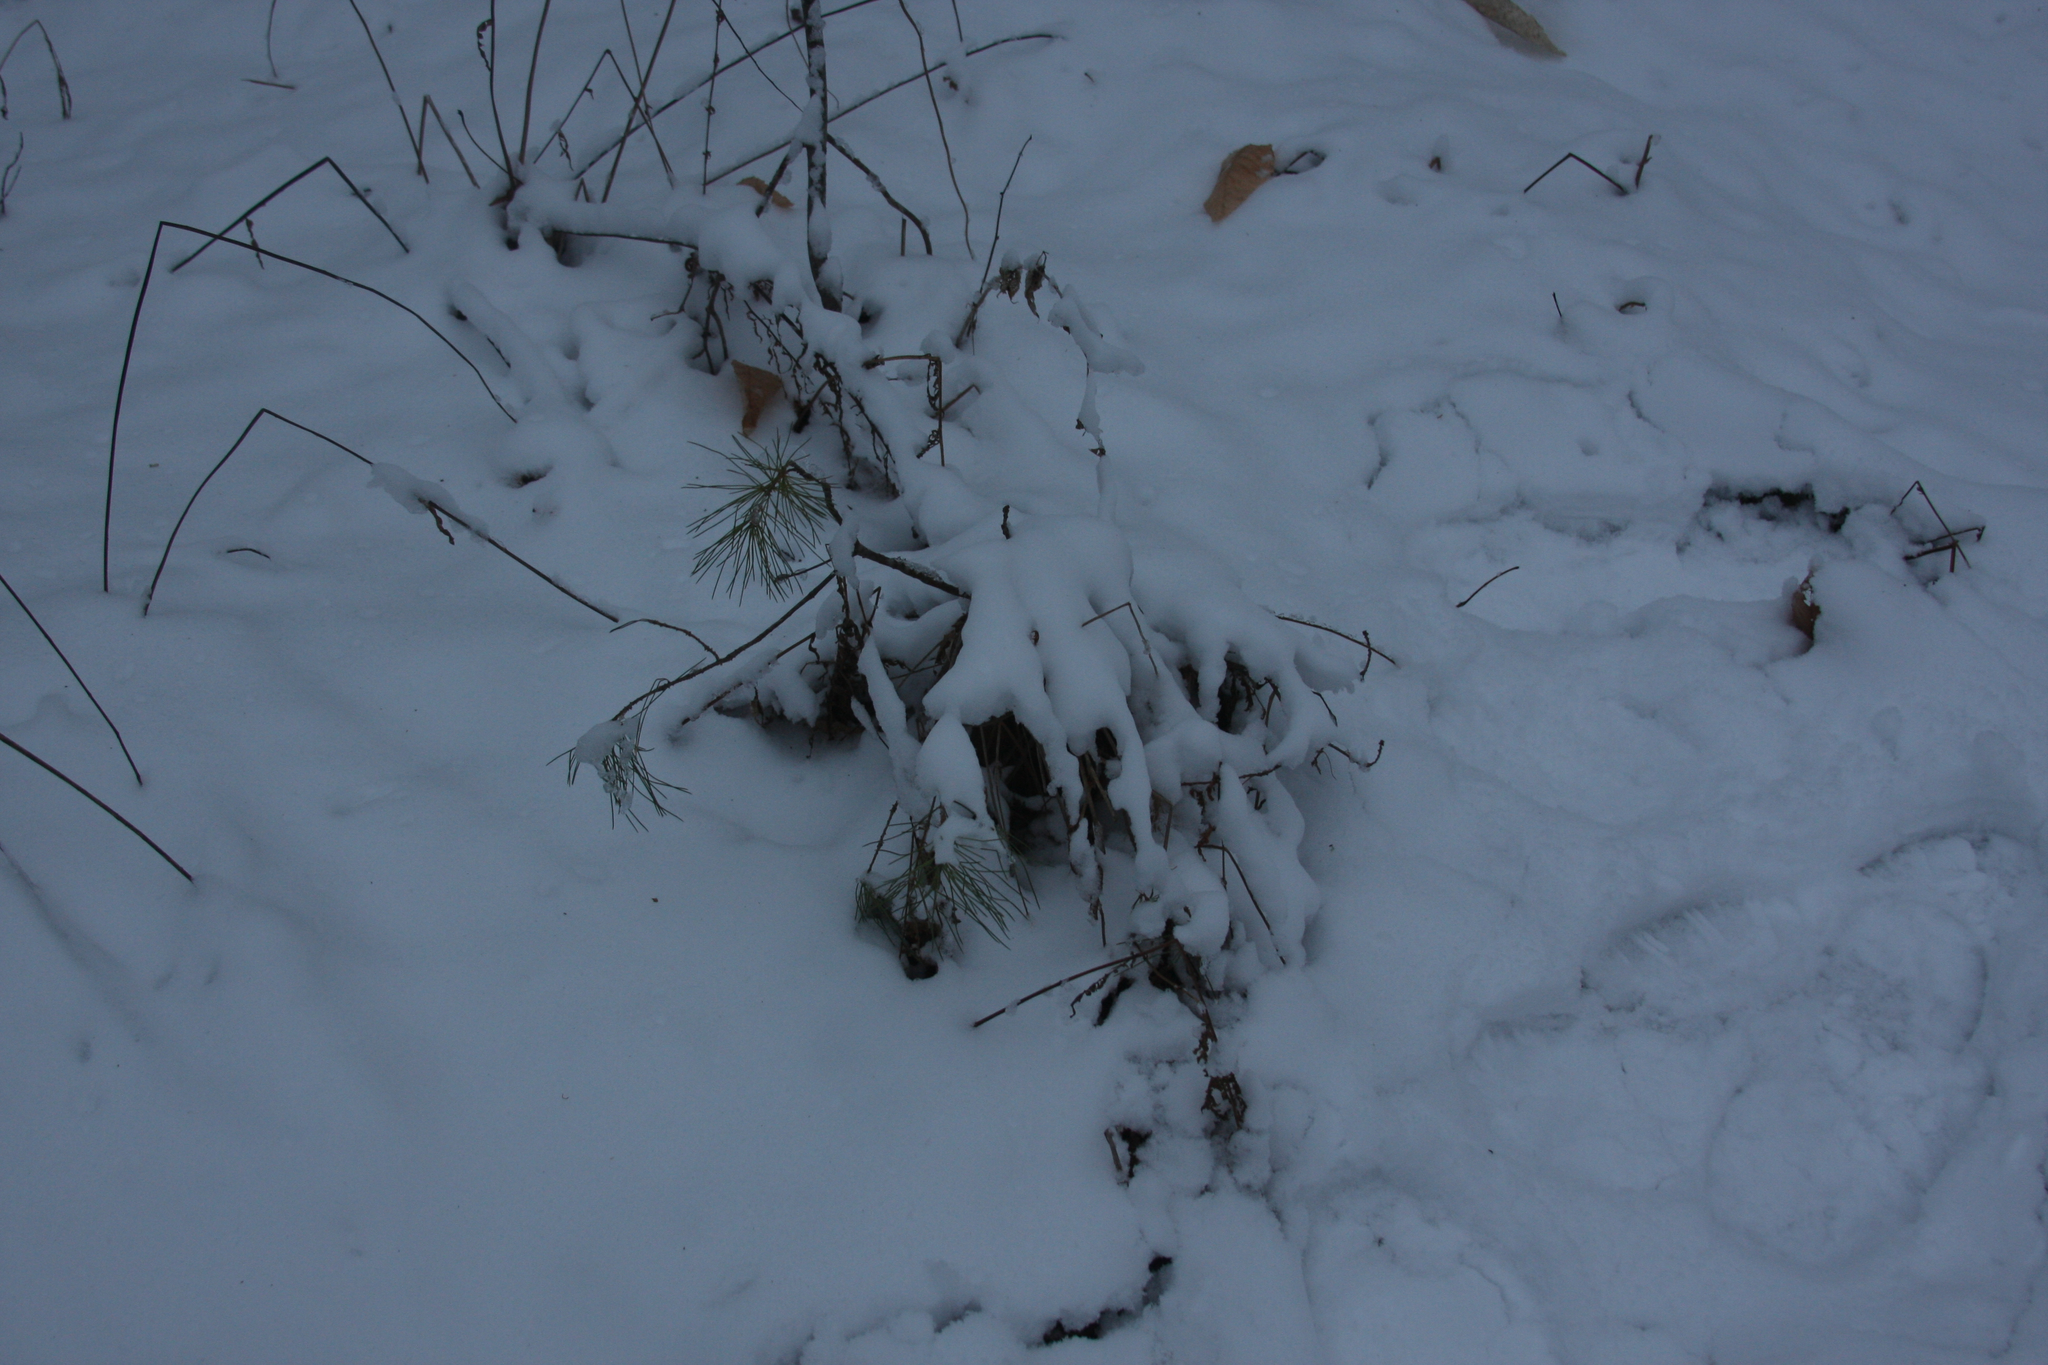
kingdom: Plantae
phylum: Tracheophyta
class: Pinopsida
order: Pinales
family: Pinaceae
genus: Pinus
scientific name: Pinus strobus
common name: Weymouth pine
